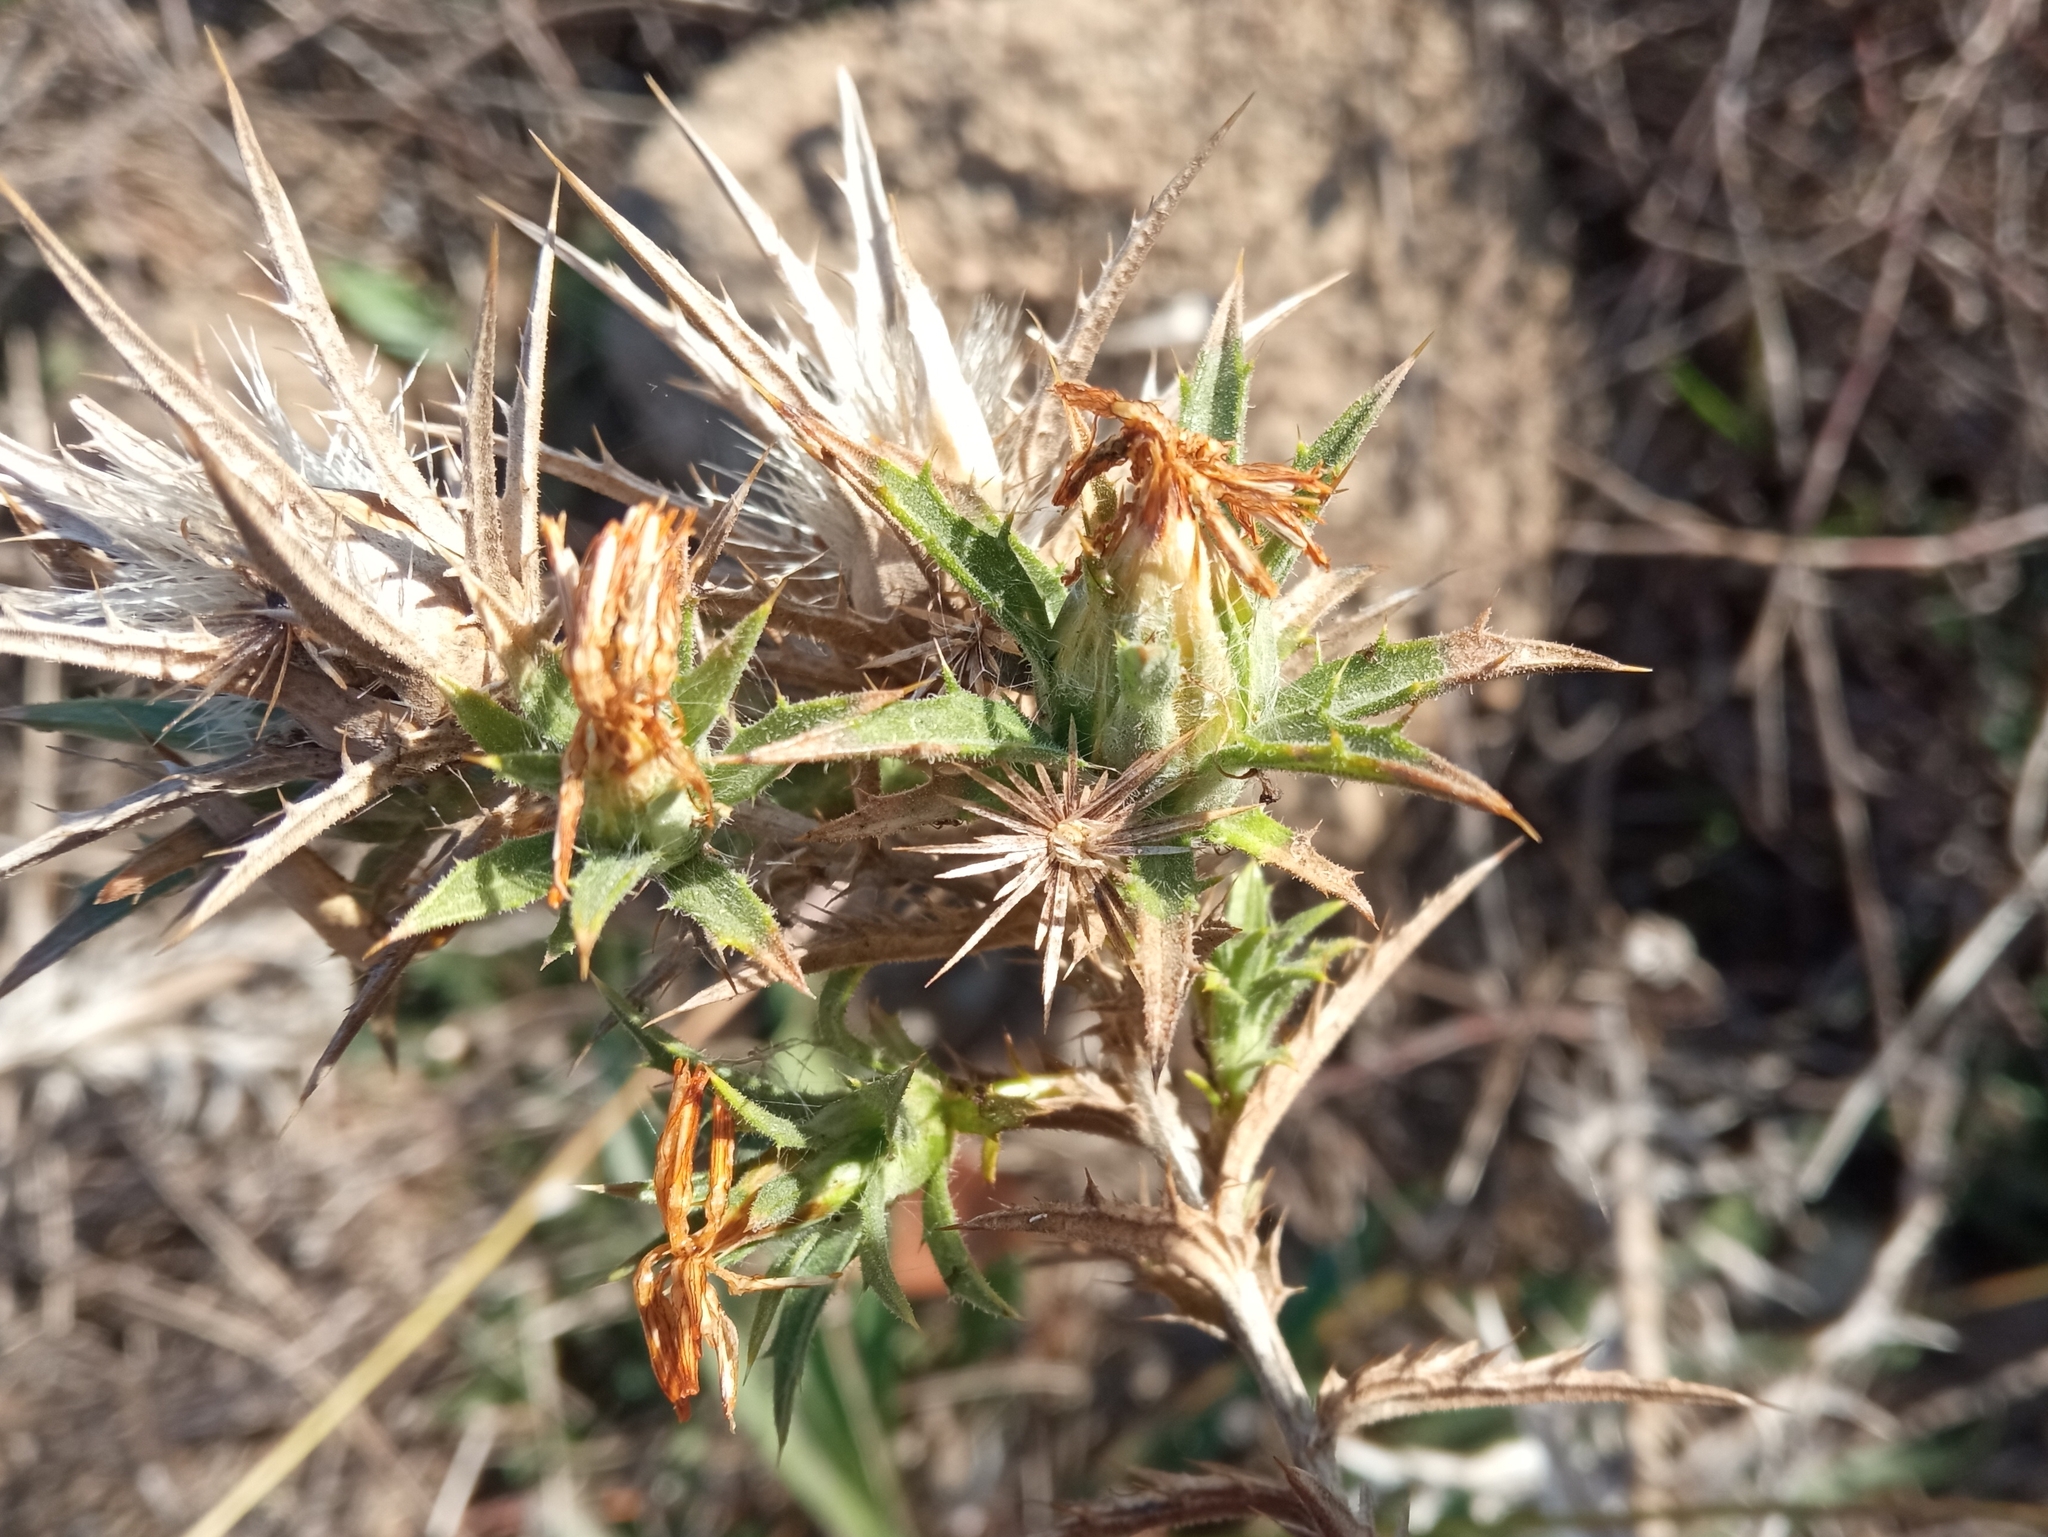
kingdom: Plantae
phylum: Tracheophyta
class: Magnoliopsida
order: Asterales
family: Asteraceae
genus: Carthamus
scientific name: Carthamus lanatus
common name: Downy safflower
